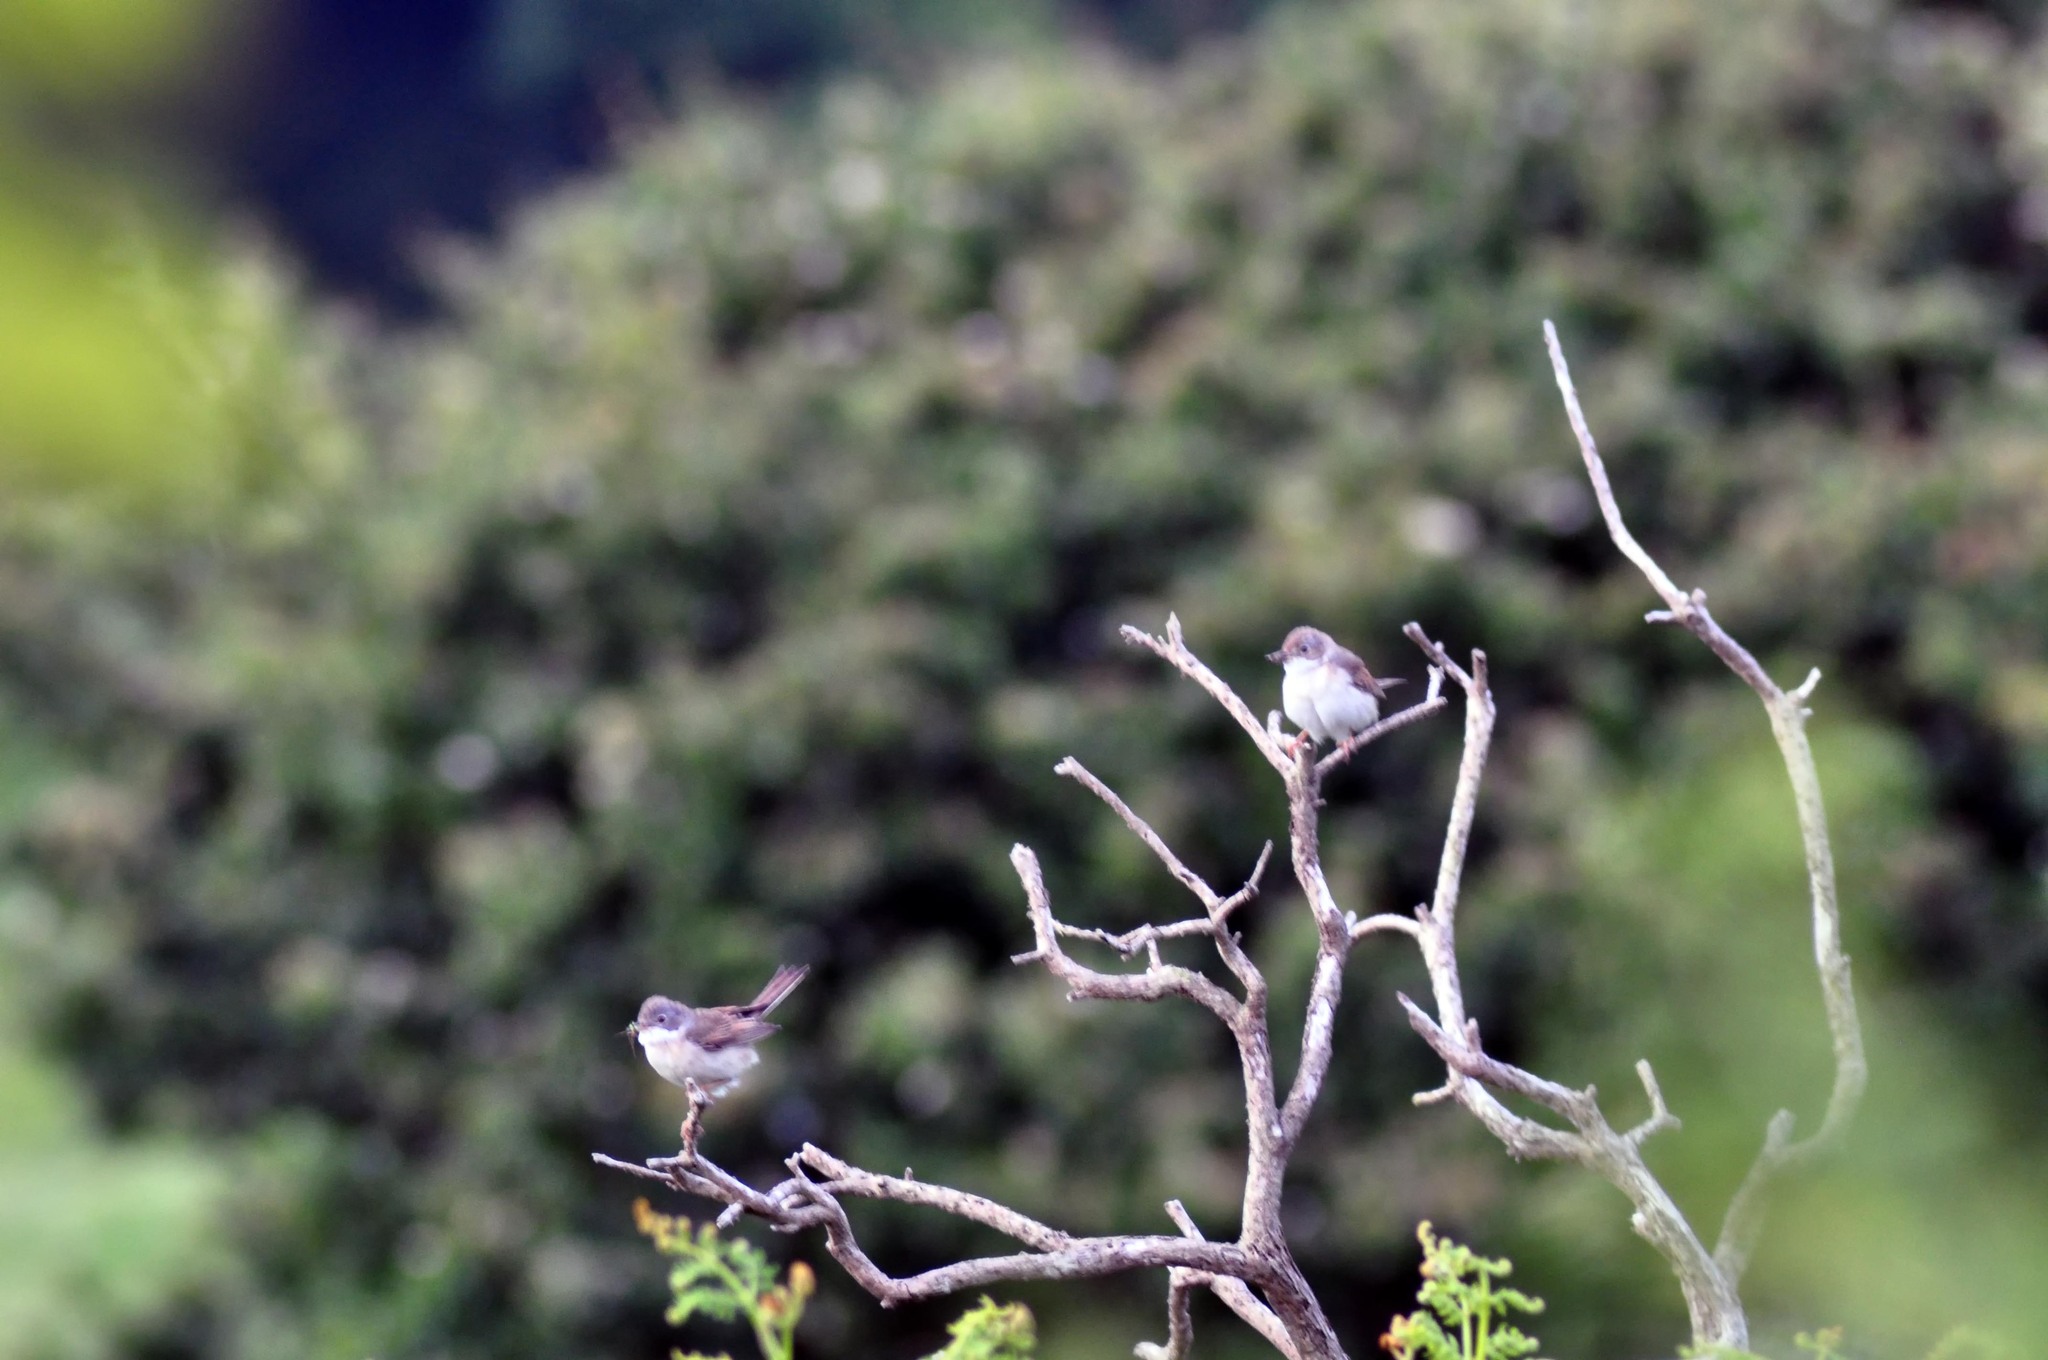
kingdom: Animalia
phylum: Chordata
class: Aves
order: Passeriformes
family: Sylviidae
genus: Sylvia
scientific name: Sylvia communis
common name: Common whitethroat
